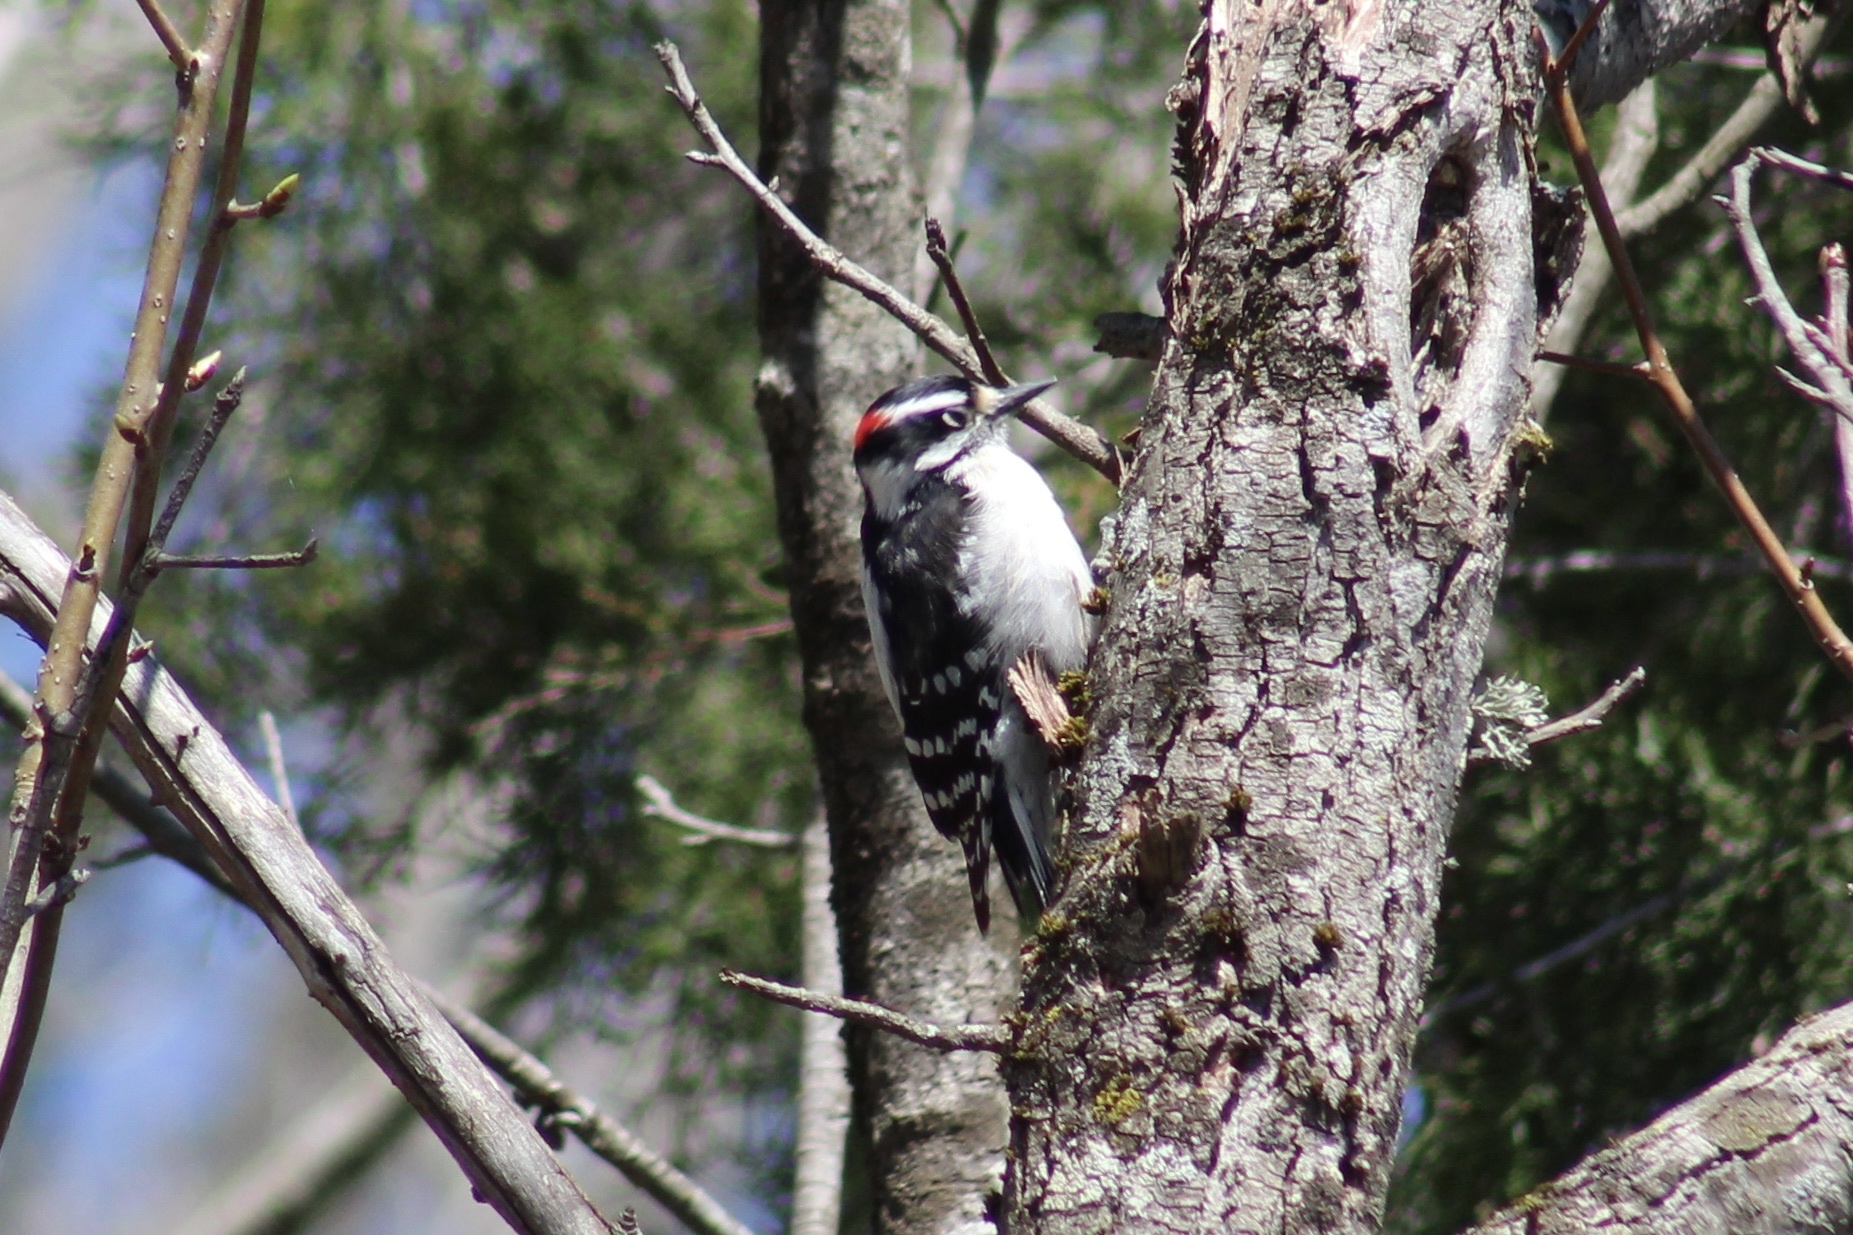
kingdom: Animalia
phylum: Chordata
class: Aves
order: Piciformes
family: Picidae
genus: Dryobates
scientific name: Dryobates pubescens
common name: Downy woodpecker
